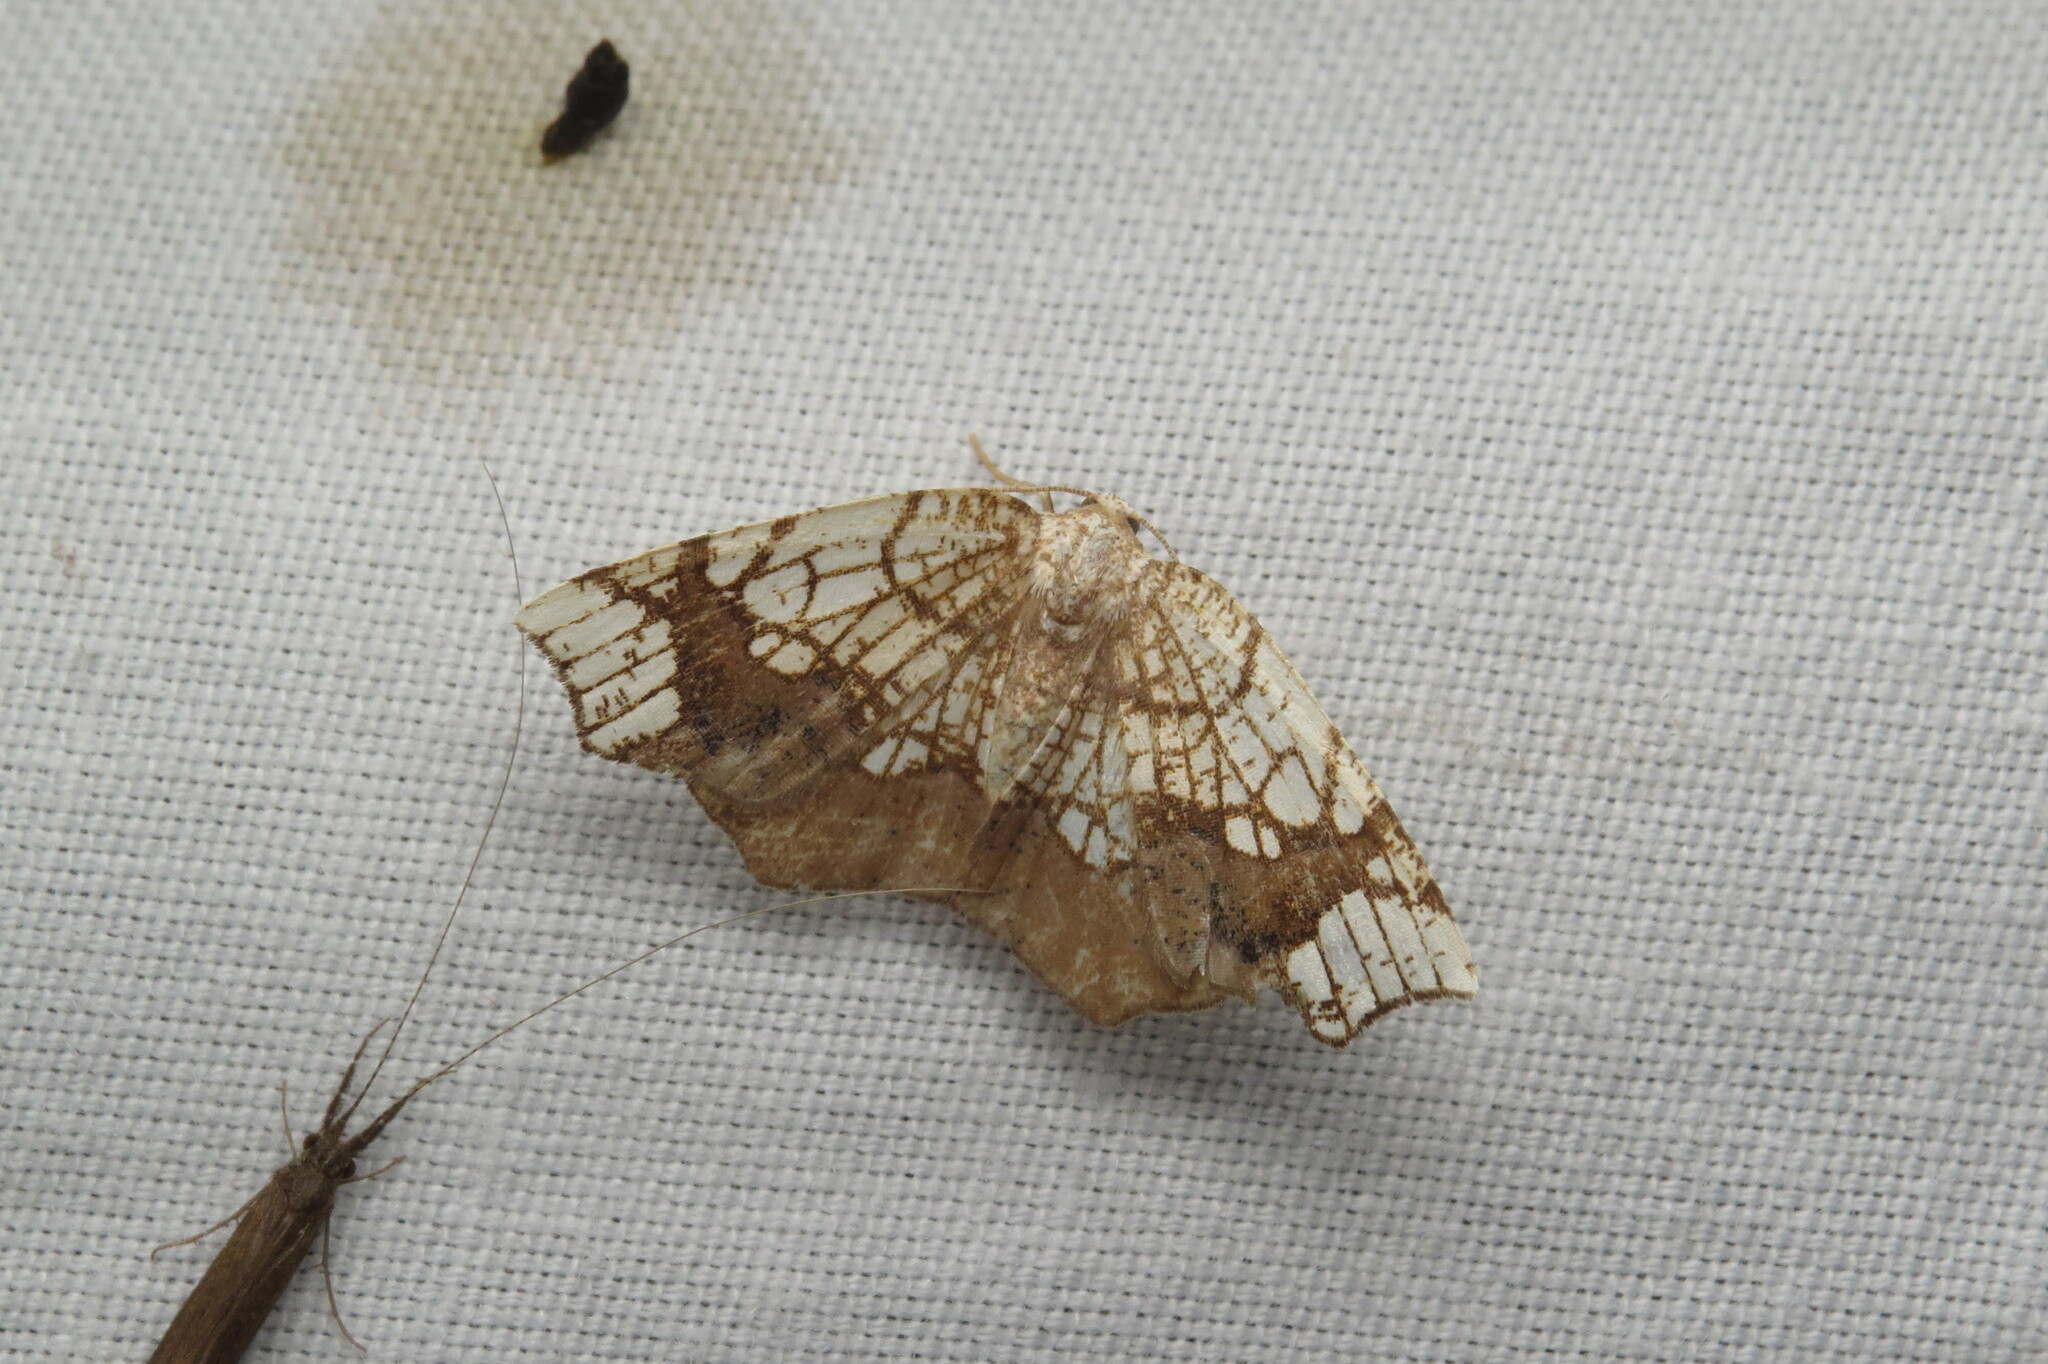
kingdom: Animalia
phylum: Arthropoda
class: Insecta
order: Lepidoptera
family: Geometridae
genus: Nematocampa
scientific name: Nematocampa resistaria
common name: Horned spanworm moth
